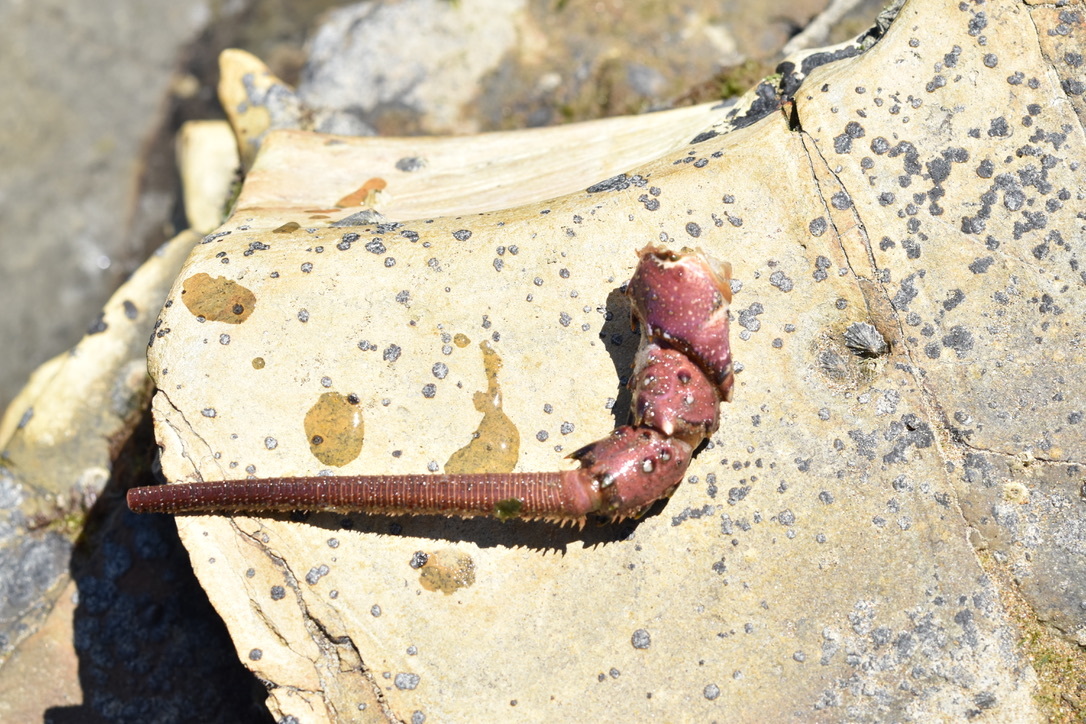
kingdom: Animalia
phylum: Arthropoda
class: Malacostraca
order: Decapoda
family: Palinuridae
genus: Panulirus
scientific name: Panulirus interruptus
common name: California spiny lobster
